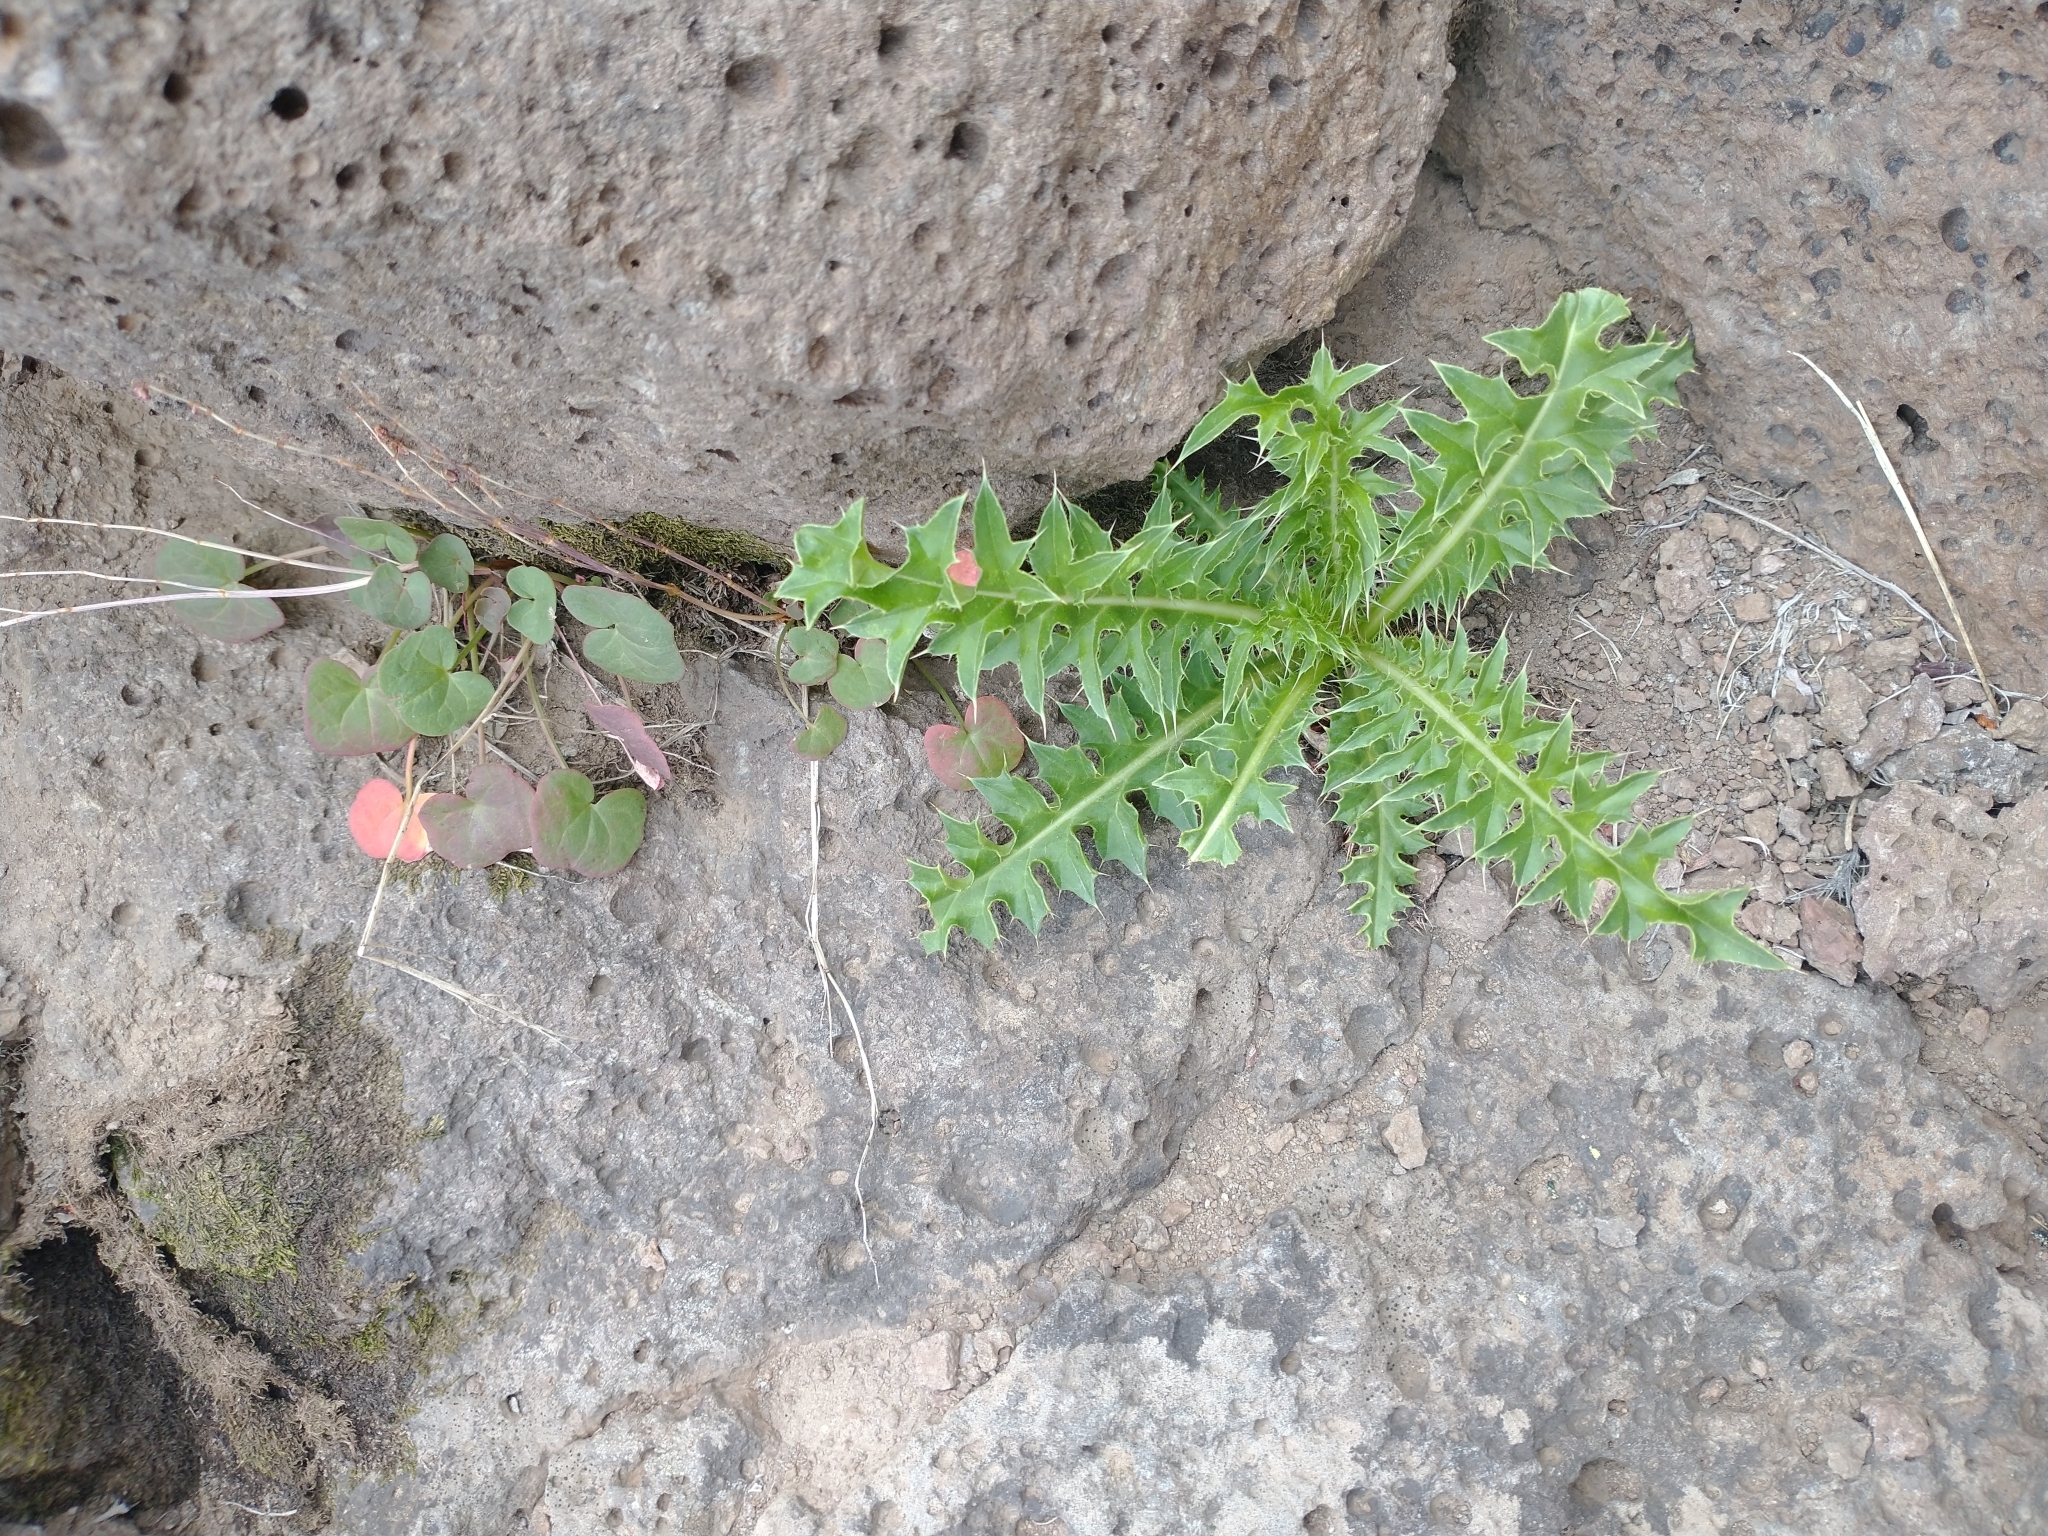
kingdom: Plantae
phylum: Tracheophyta
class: Magnoliopsida
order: Caryophyllales
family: Polygonaceae
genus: Oxyria
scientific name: Oxyria digyna
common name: Alpine mountain-sorrel
